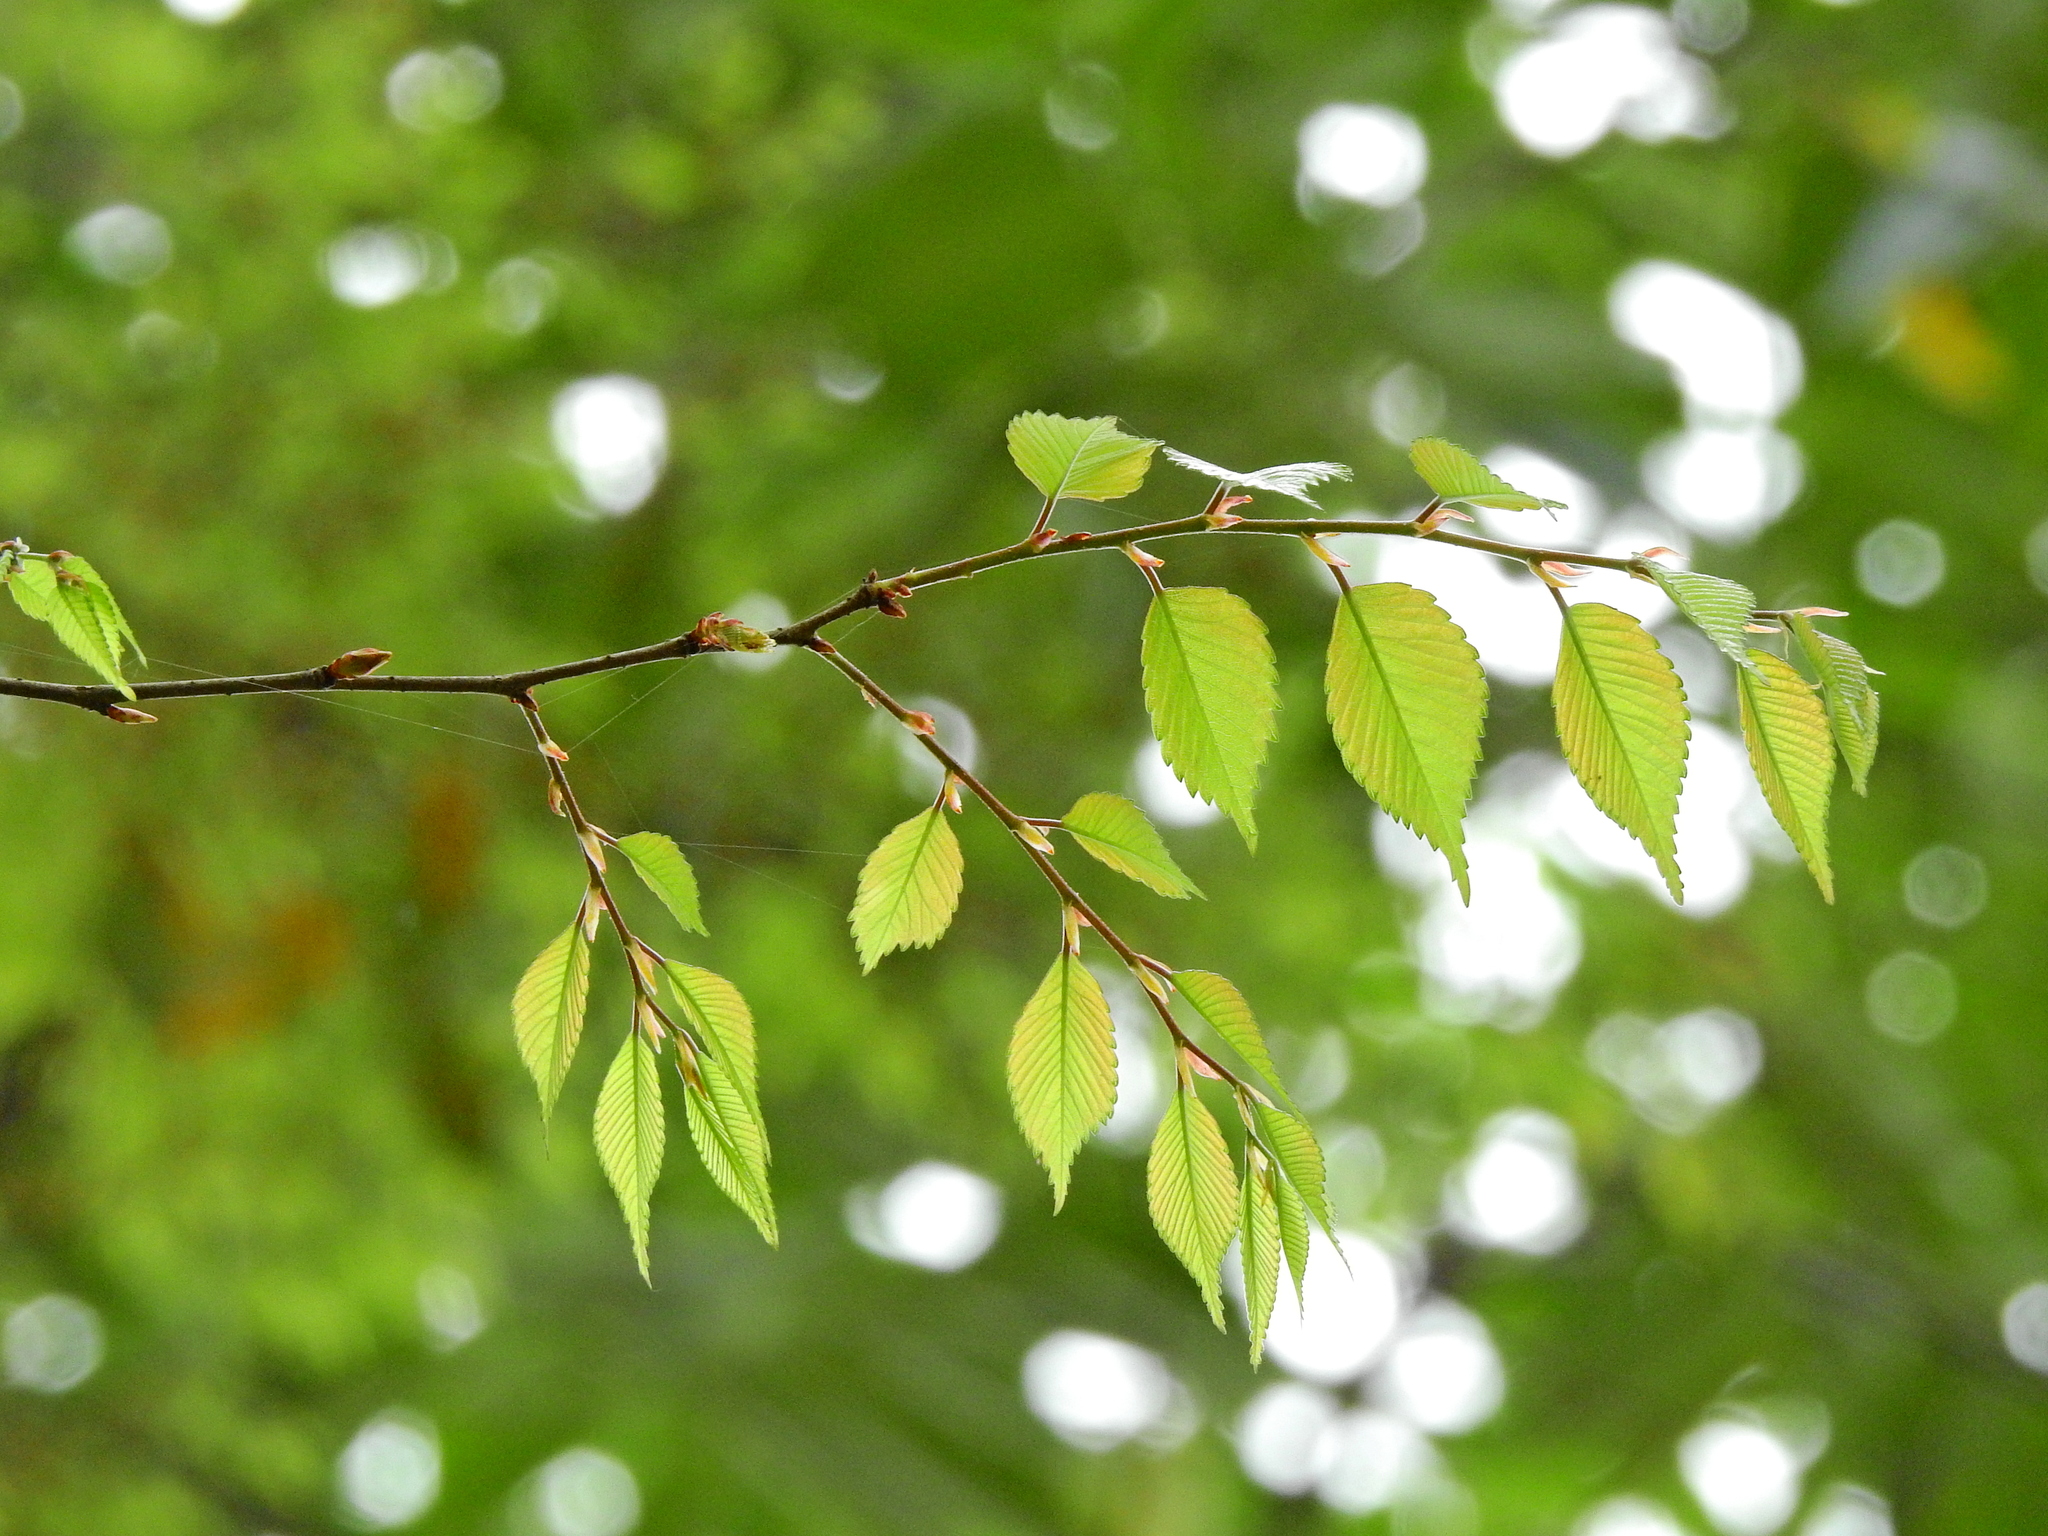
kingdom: Plantae
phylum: Tracheophyta
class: Magnoliopsida
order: Rosales
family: Ulmaceae
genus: Zelkova
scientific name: Zelkova serrata
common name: Japanese zelkova
